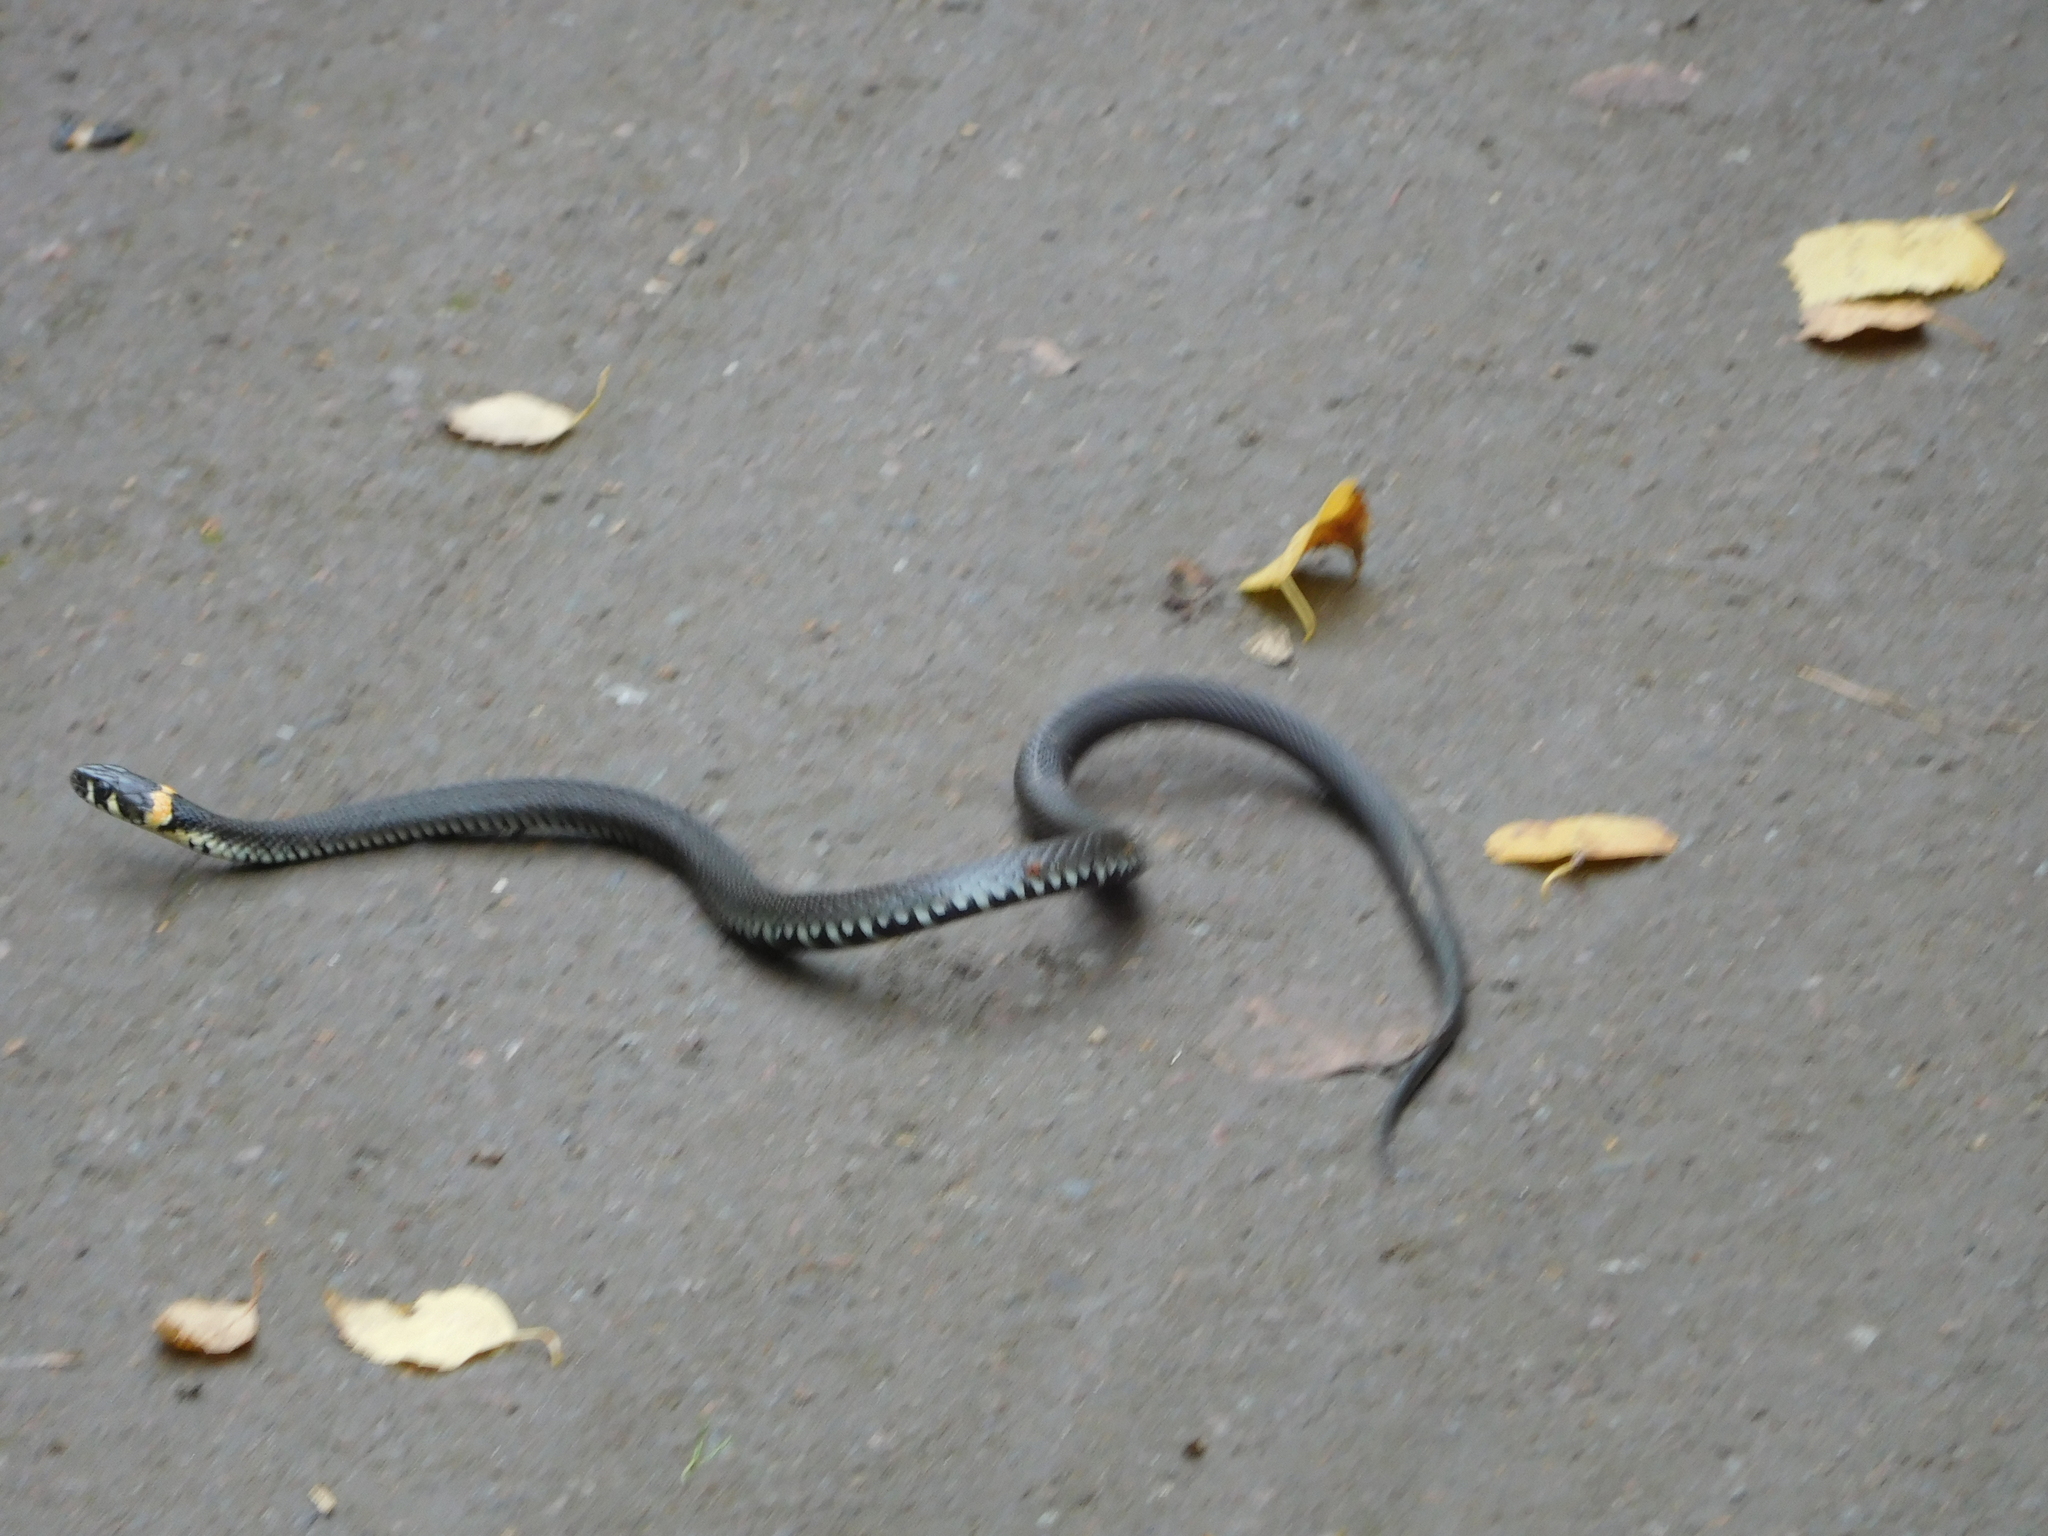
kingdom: Animalia
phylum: Chordata
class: Squamata
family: Colubridae
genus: Natrix
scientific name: Natrix natrix
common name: Grass snake
